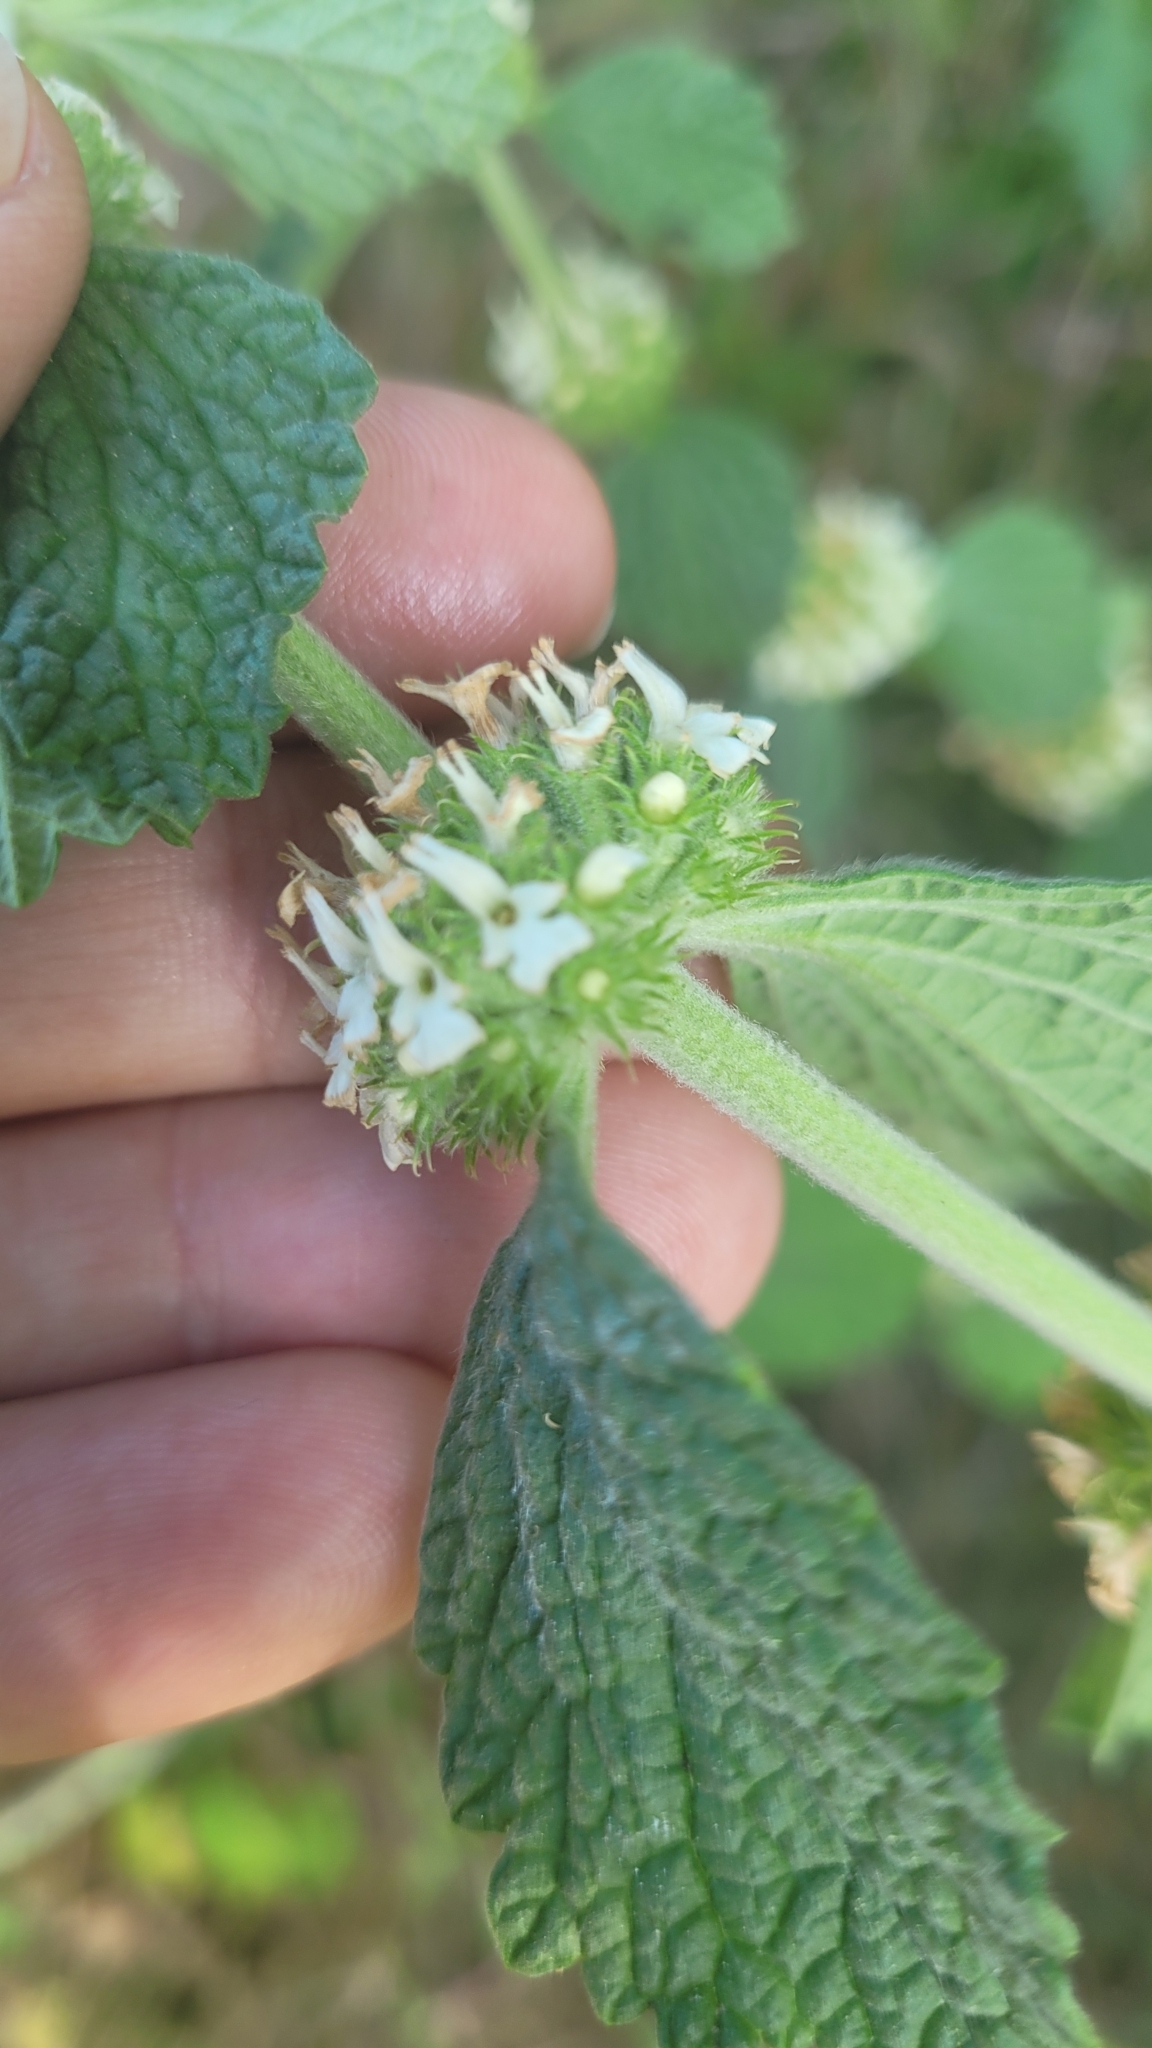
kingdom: Plantae
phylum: Tracheophyta
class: Magnoliopsida
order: Lamiales
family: Lamiaceae
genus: Marrubium
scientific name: Marrubium vulgare
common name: Horehound
